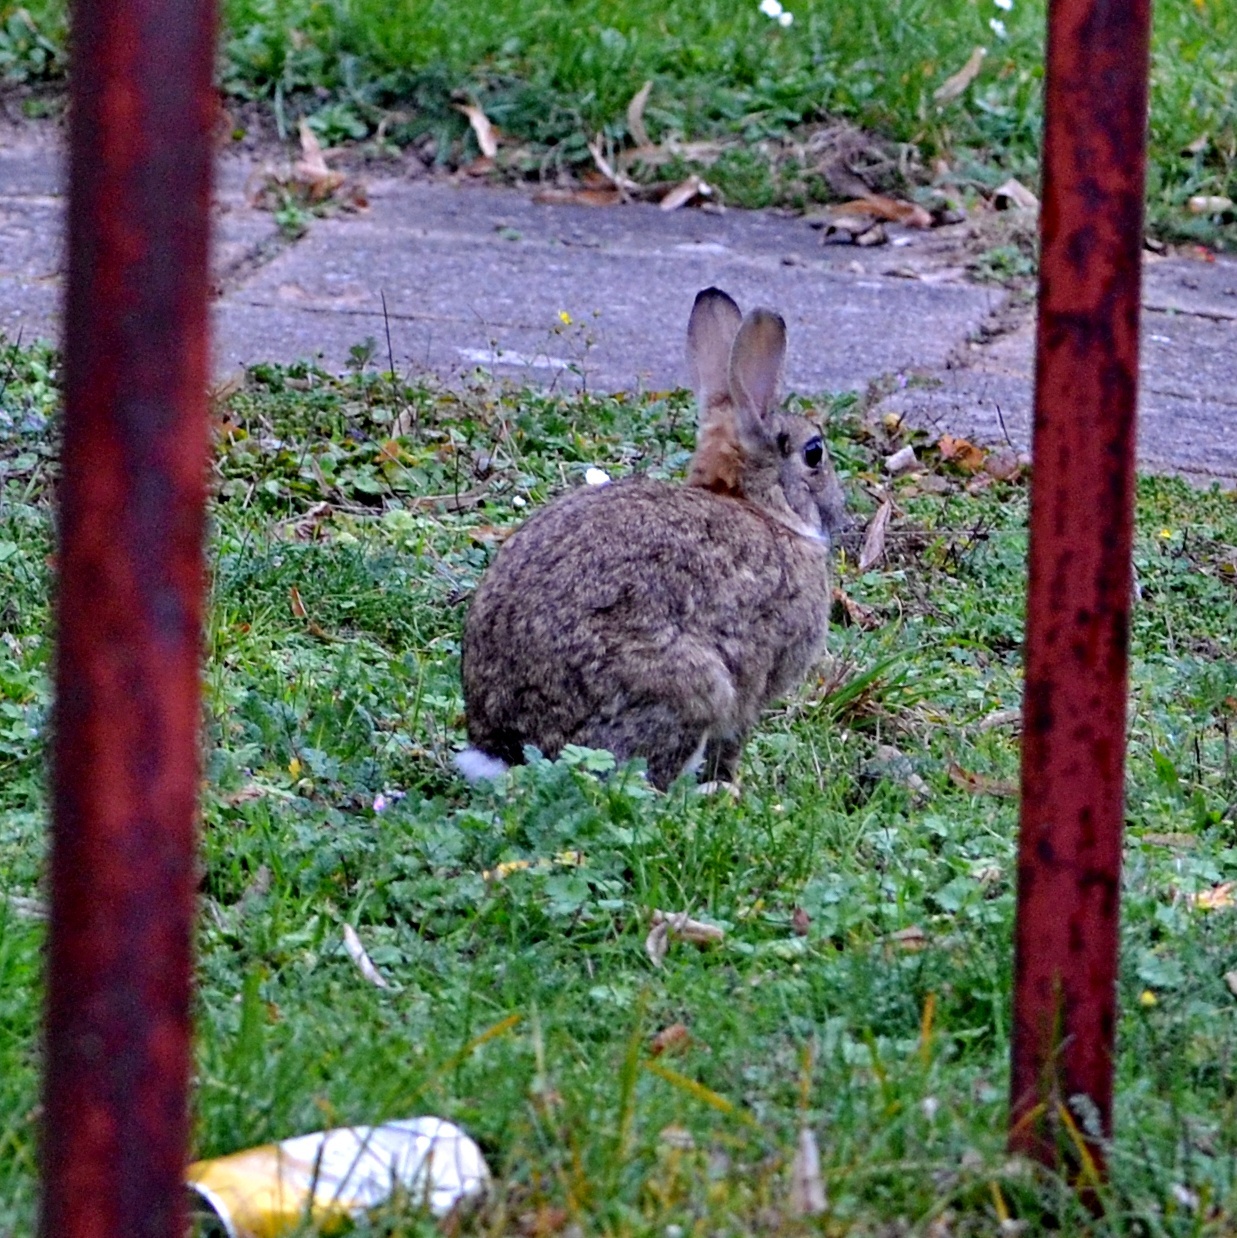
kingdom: Animalia
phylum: Chordata
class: Mammalia
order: Lagomorpha
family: Leporidae
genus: Oryctolagus
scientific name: Oryctolagus cuniculus
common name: European rabbit
